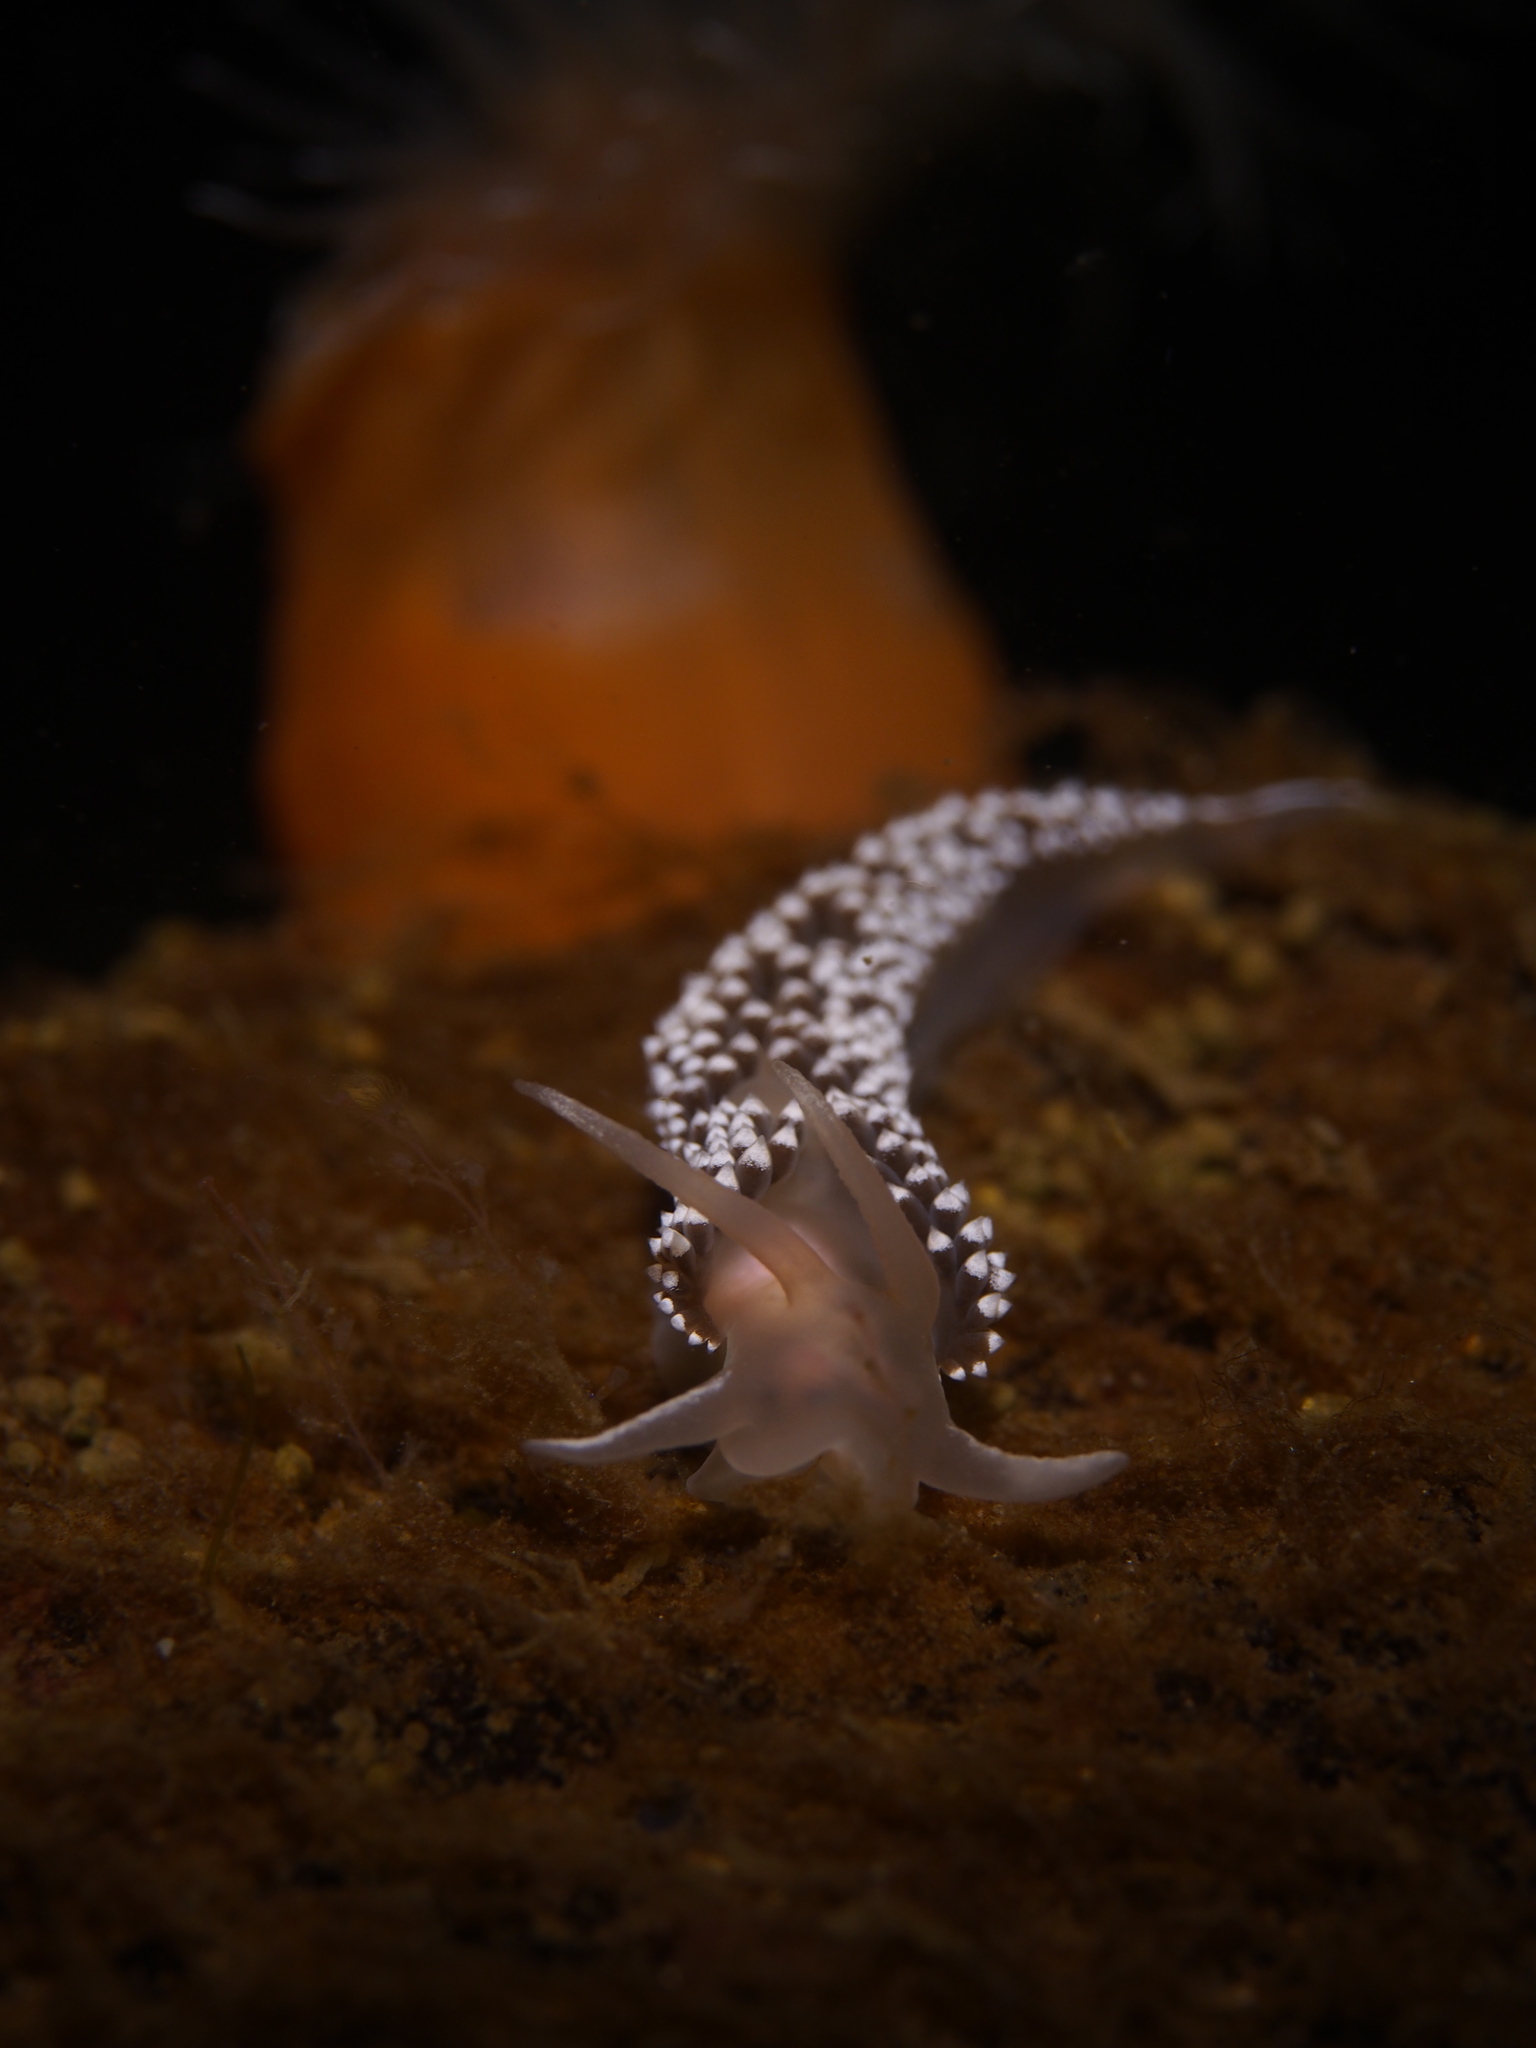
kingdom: Animalia
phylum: Mollusca
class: Gastropoda
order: Nudibranchia
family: Coryphellidae
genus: Coryphella
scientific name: Coryphella verrucosa
